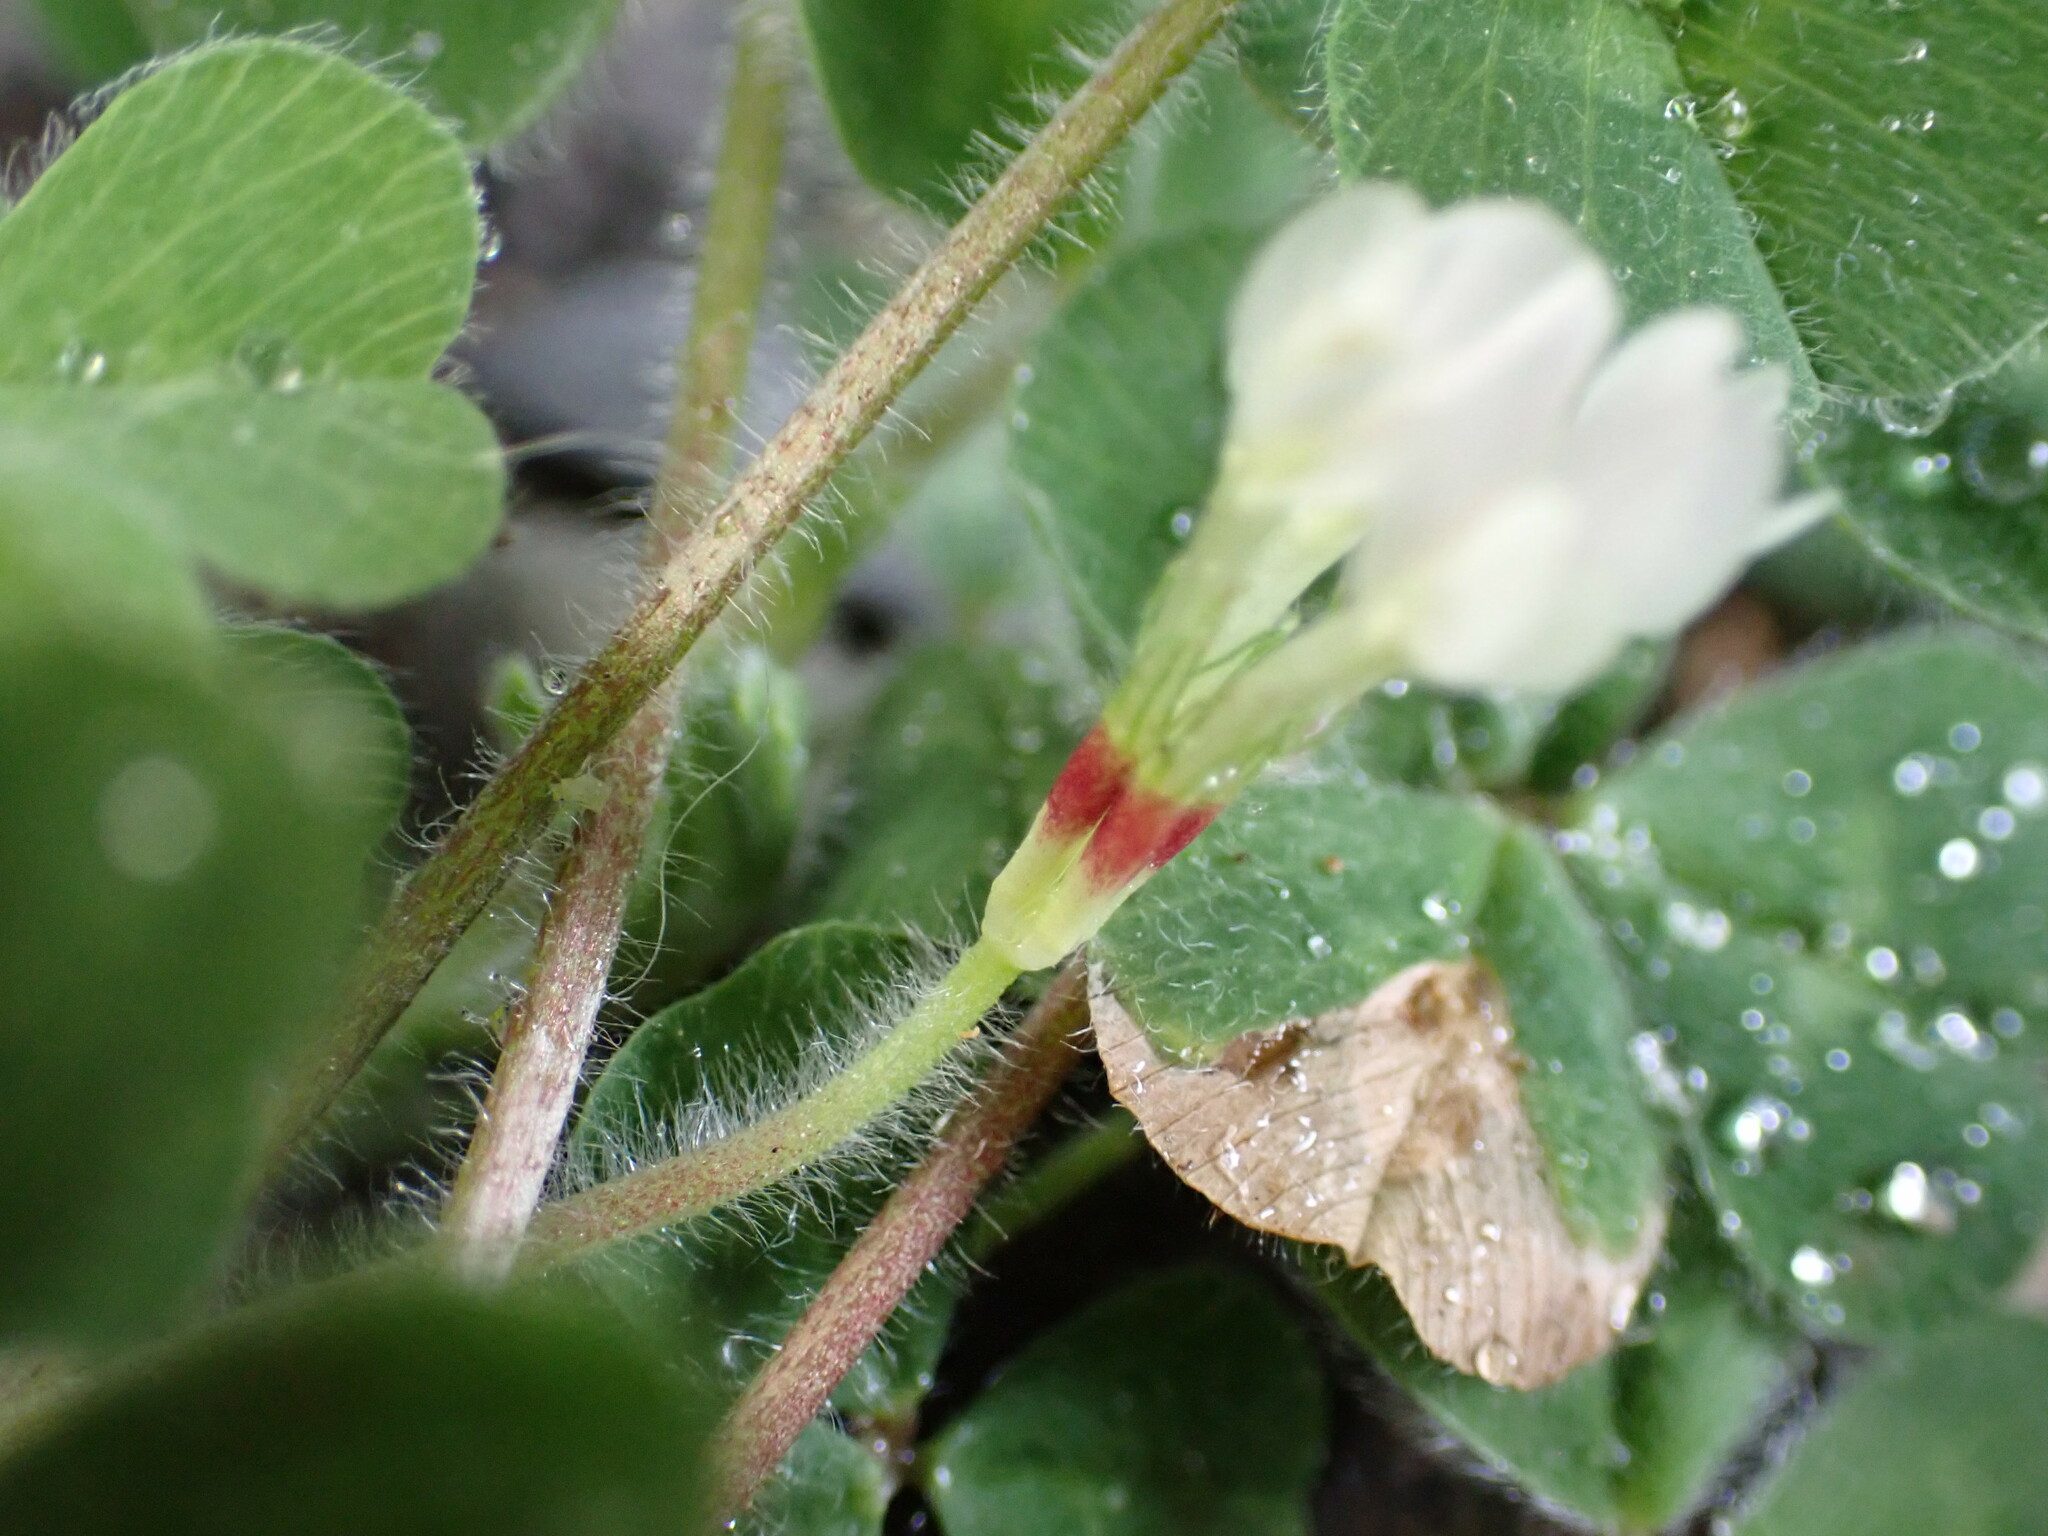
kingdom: Plantae
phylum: Tracheophyta
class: Magnoliopsida
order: Fabales
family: Fabaceae
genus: Trifolium
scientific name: Trifolium subterraneum
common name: Subterranean clover
